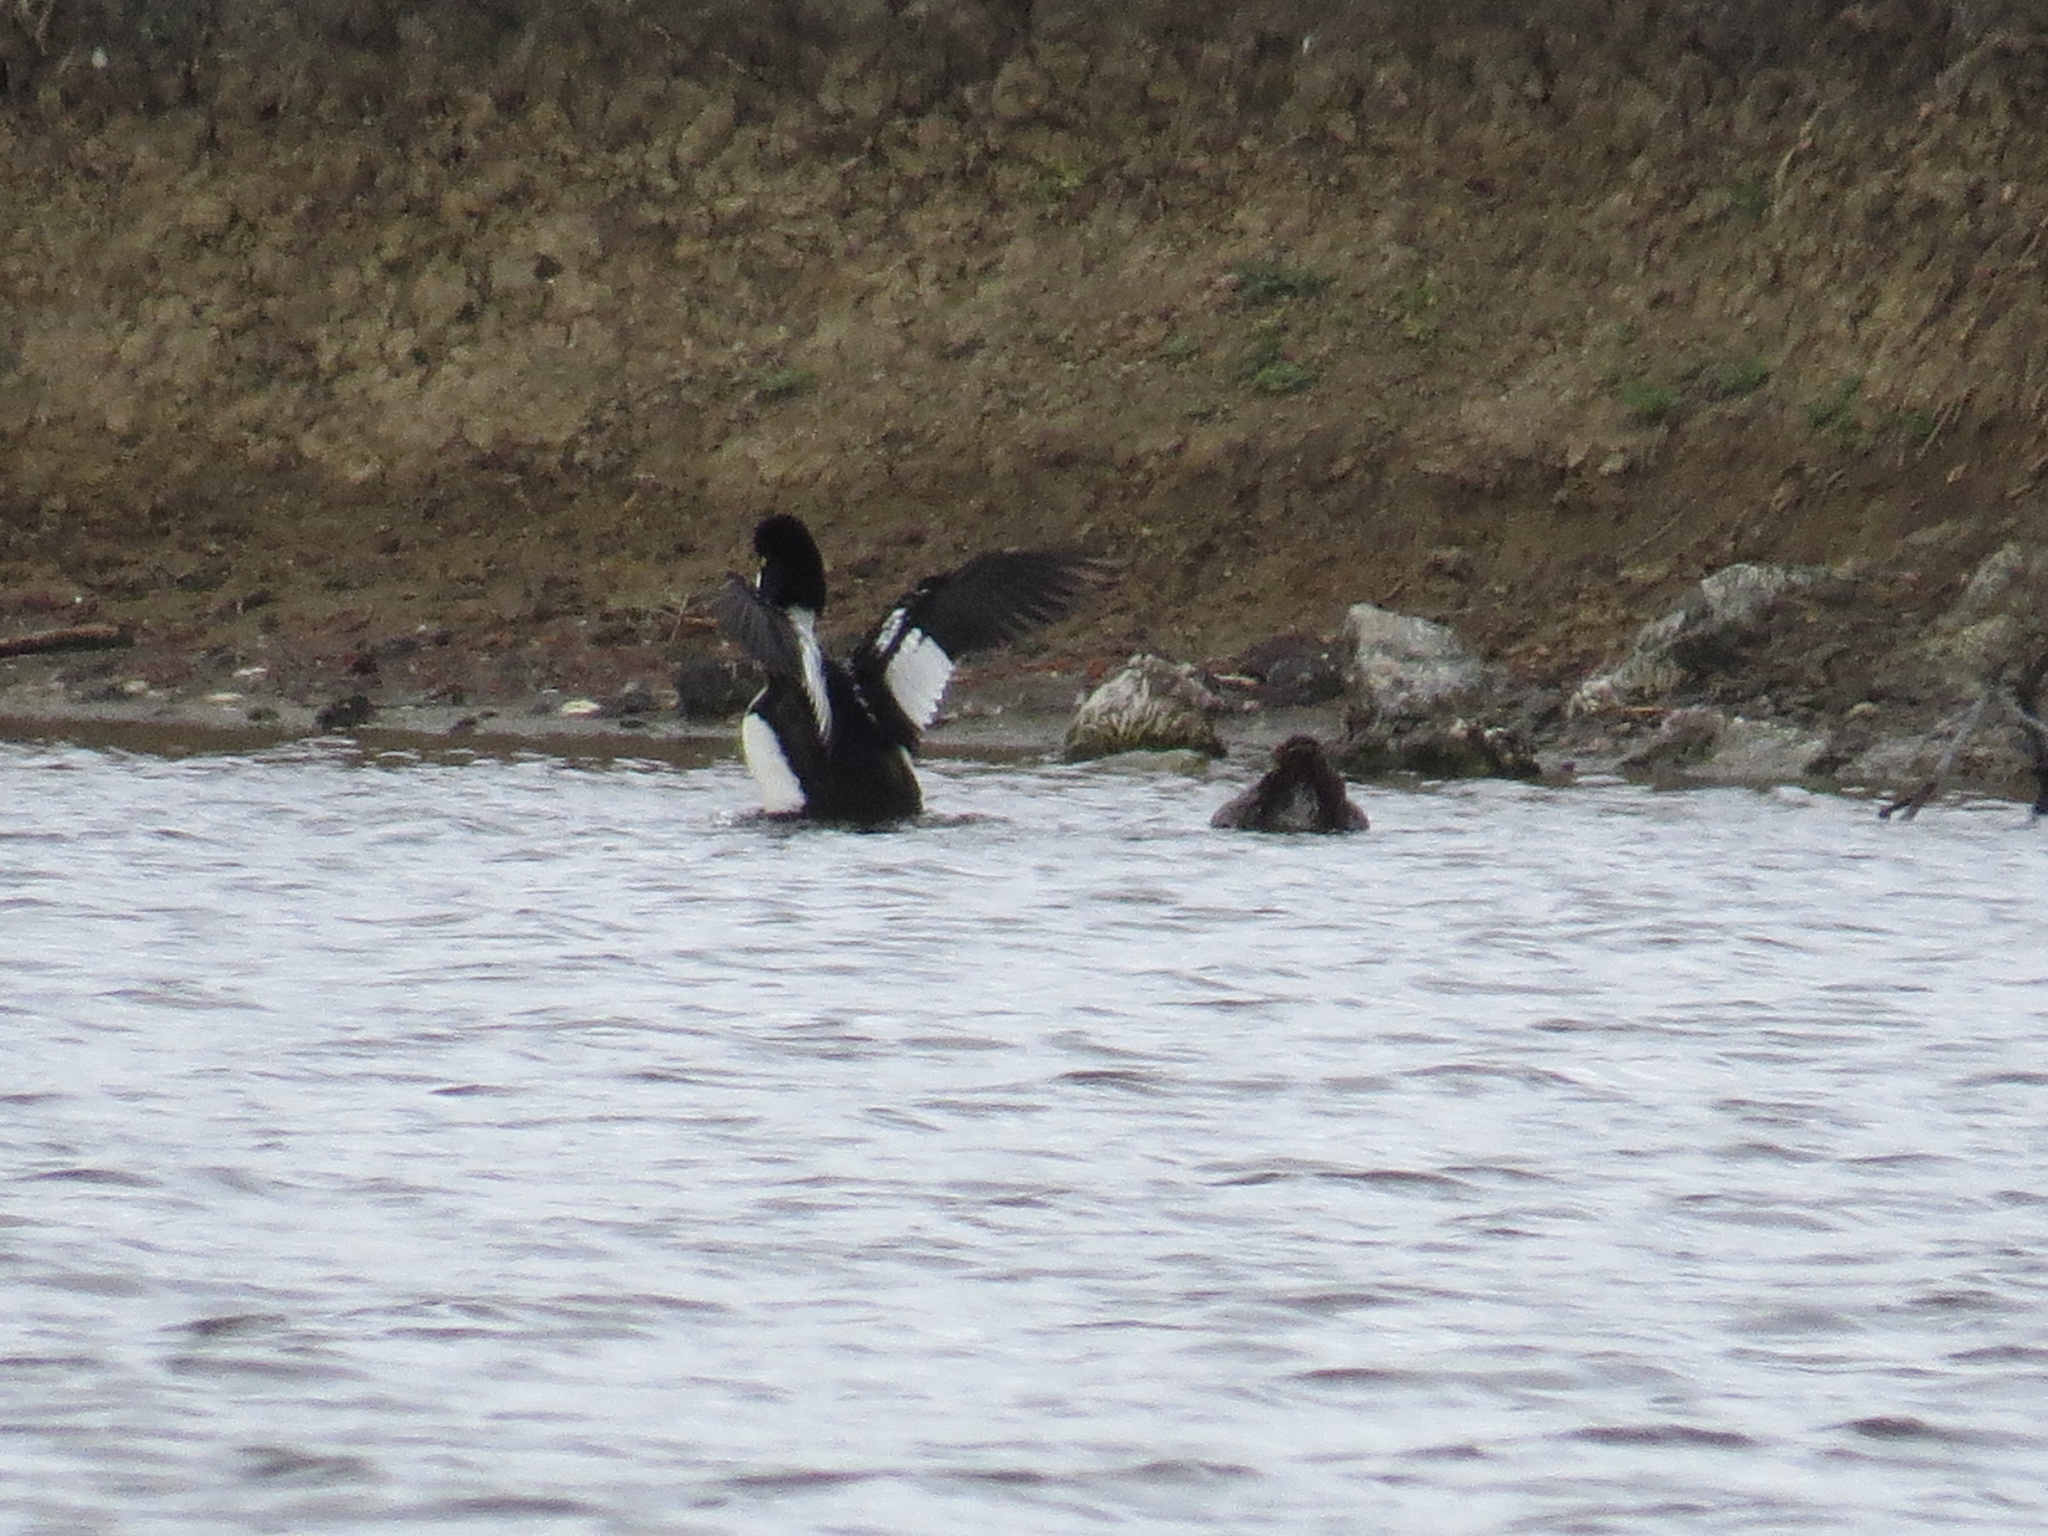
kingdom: Animalia
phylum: Chordata
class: Aves
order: Anseriformes
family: Anatidae
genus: Bucephala
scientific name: Bucephala islandica
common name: Barrow's goldeneye
